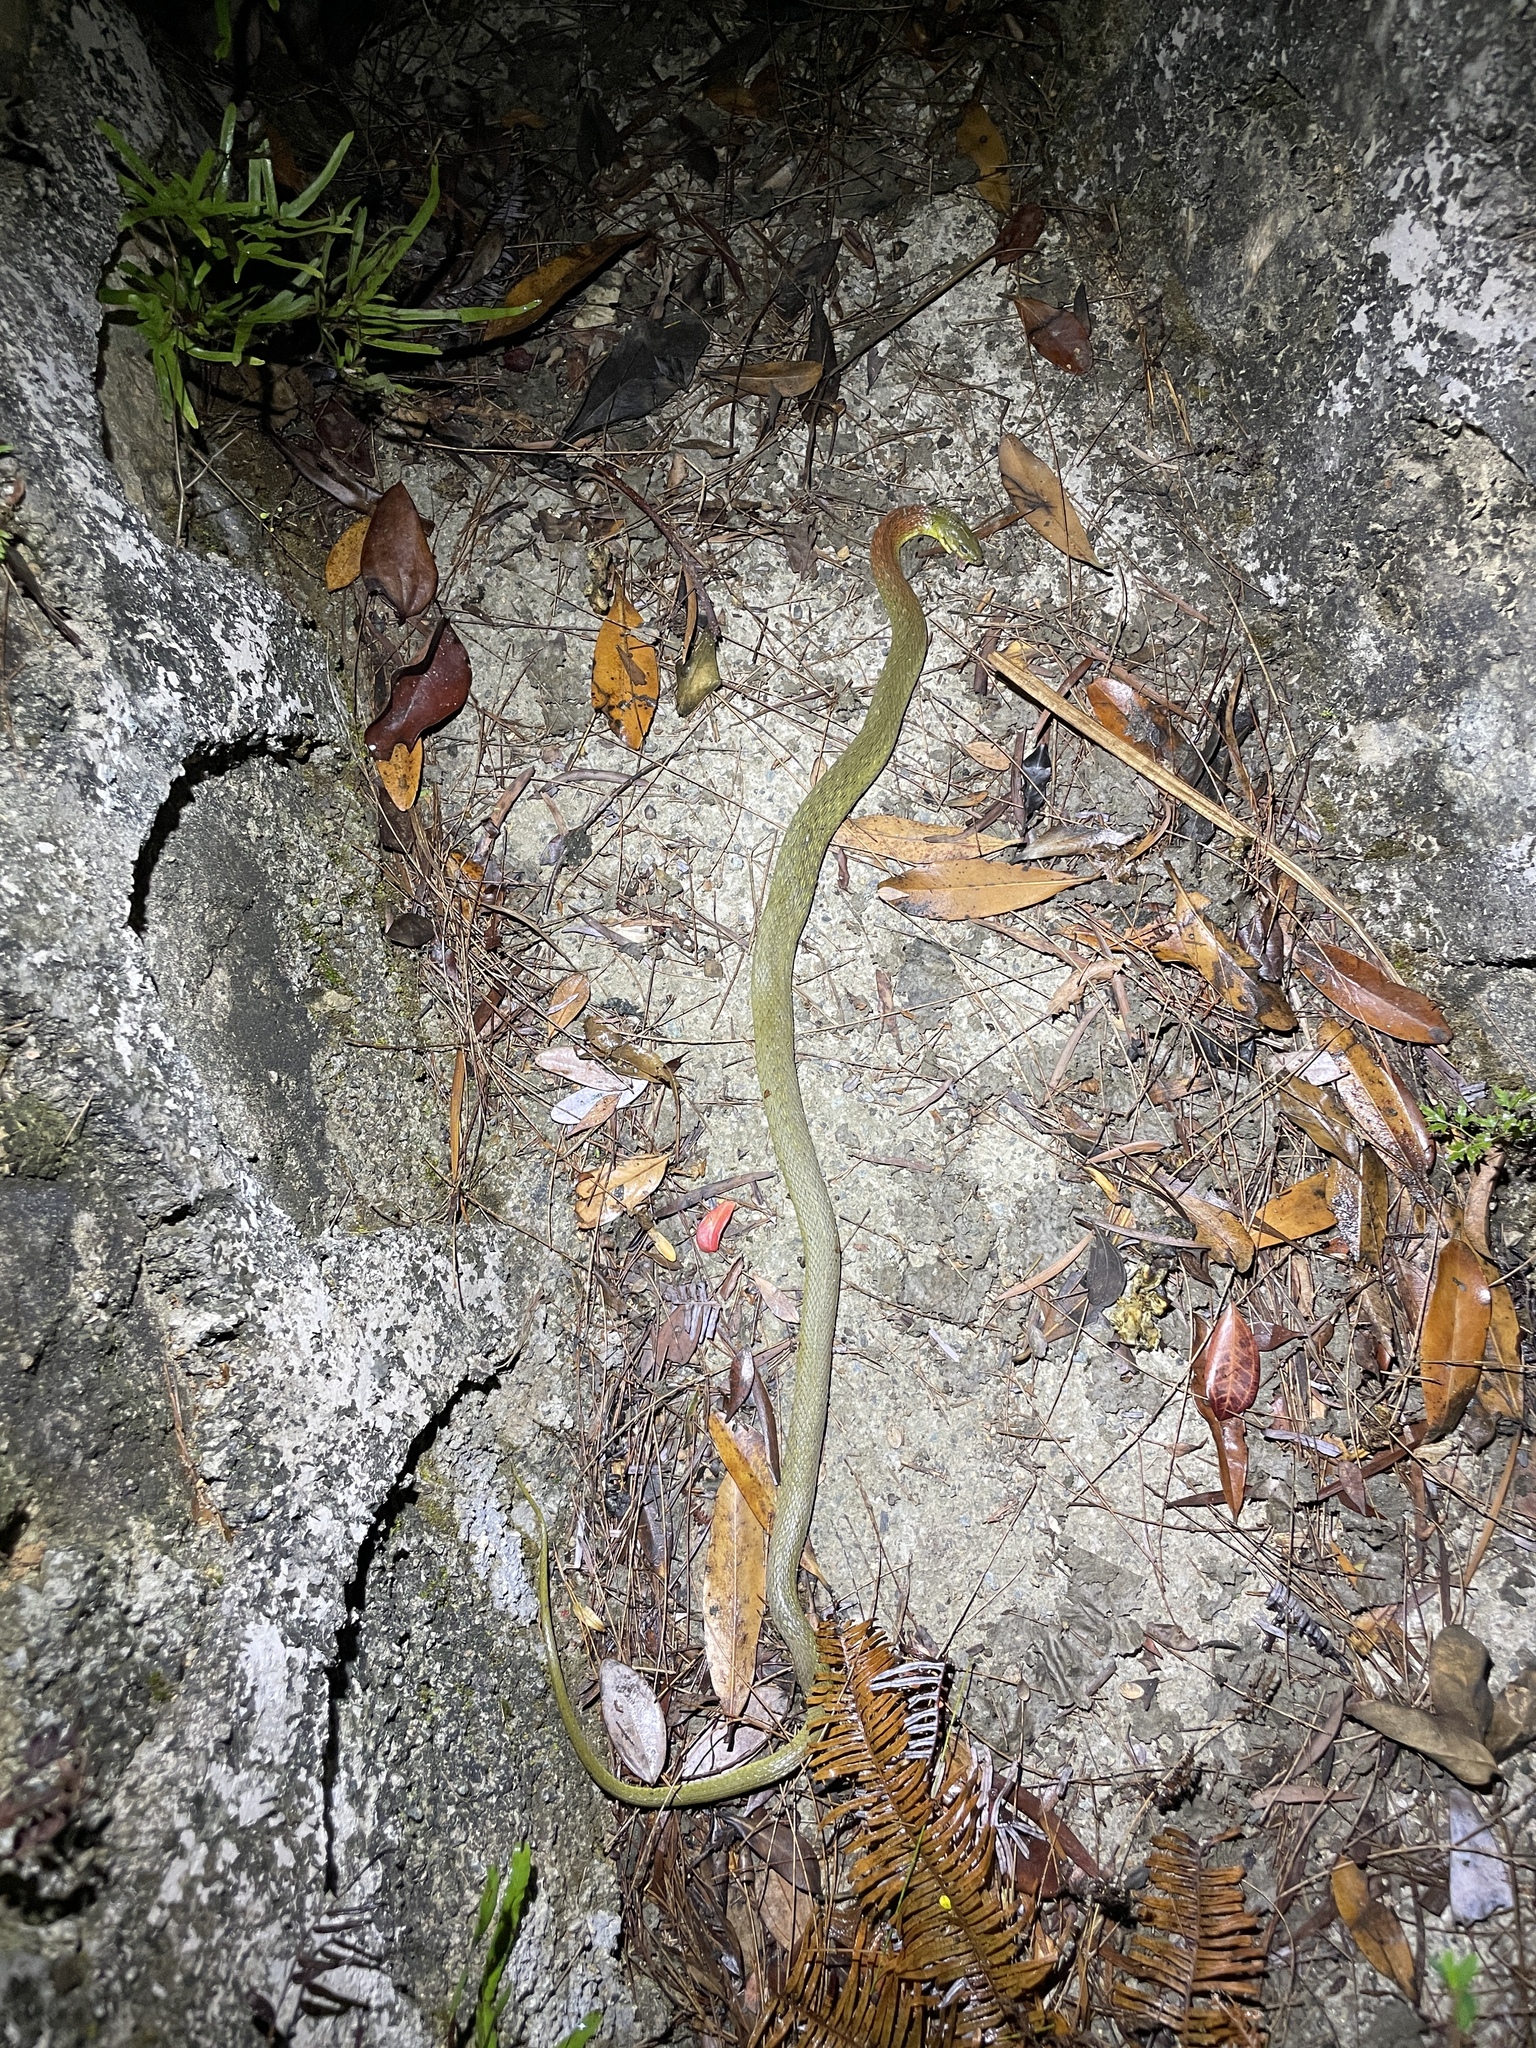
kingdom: Animalia
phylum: Chordata
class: Squamata
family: Colubridae
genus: Rhabdophis
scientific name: Rhabdophis helleri
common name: Heller’s red-necked keelback
